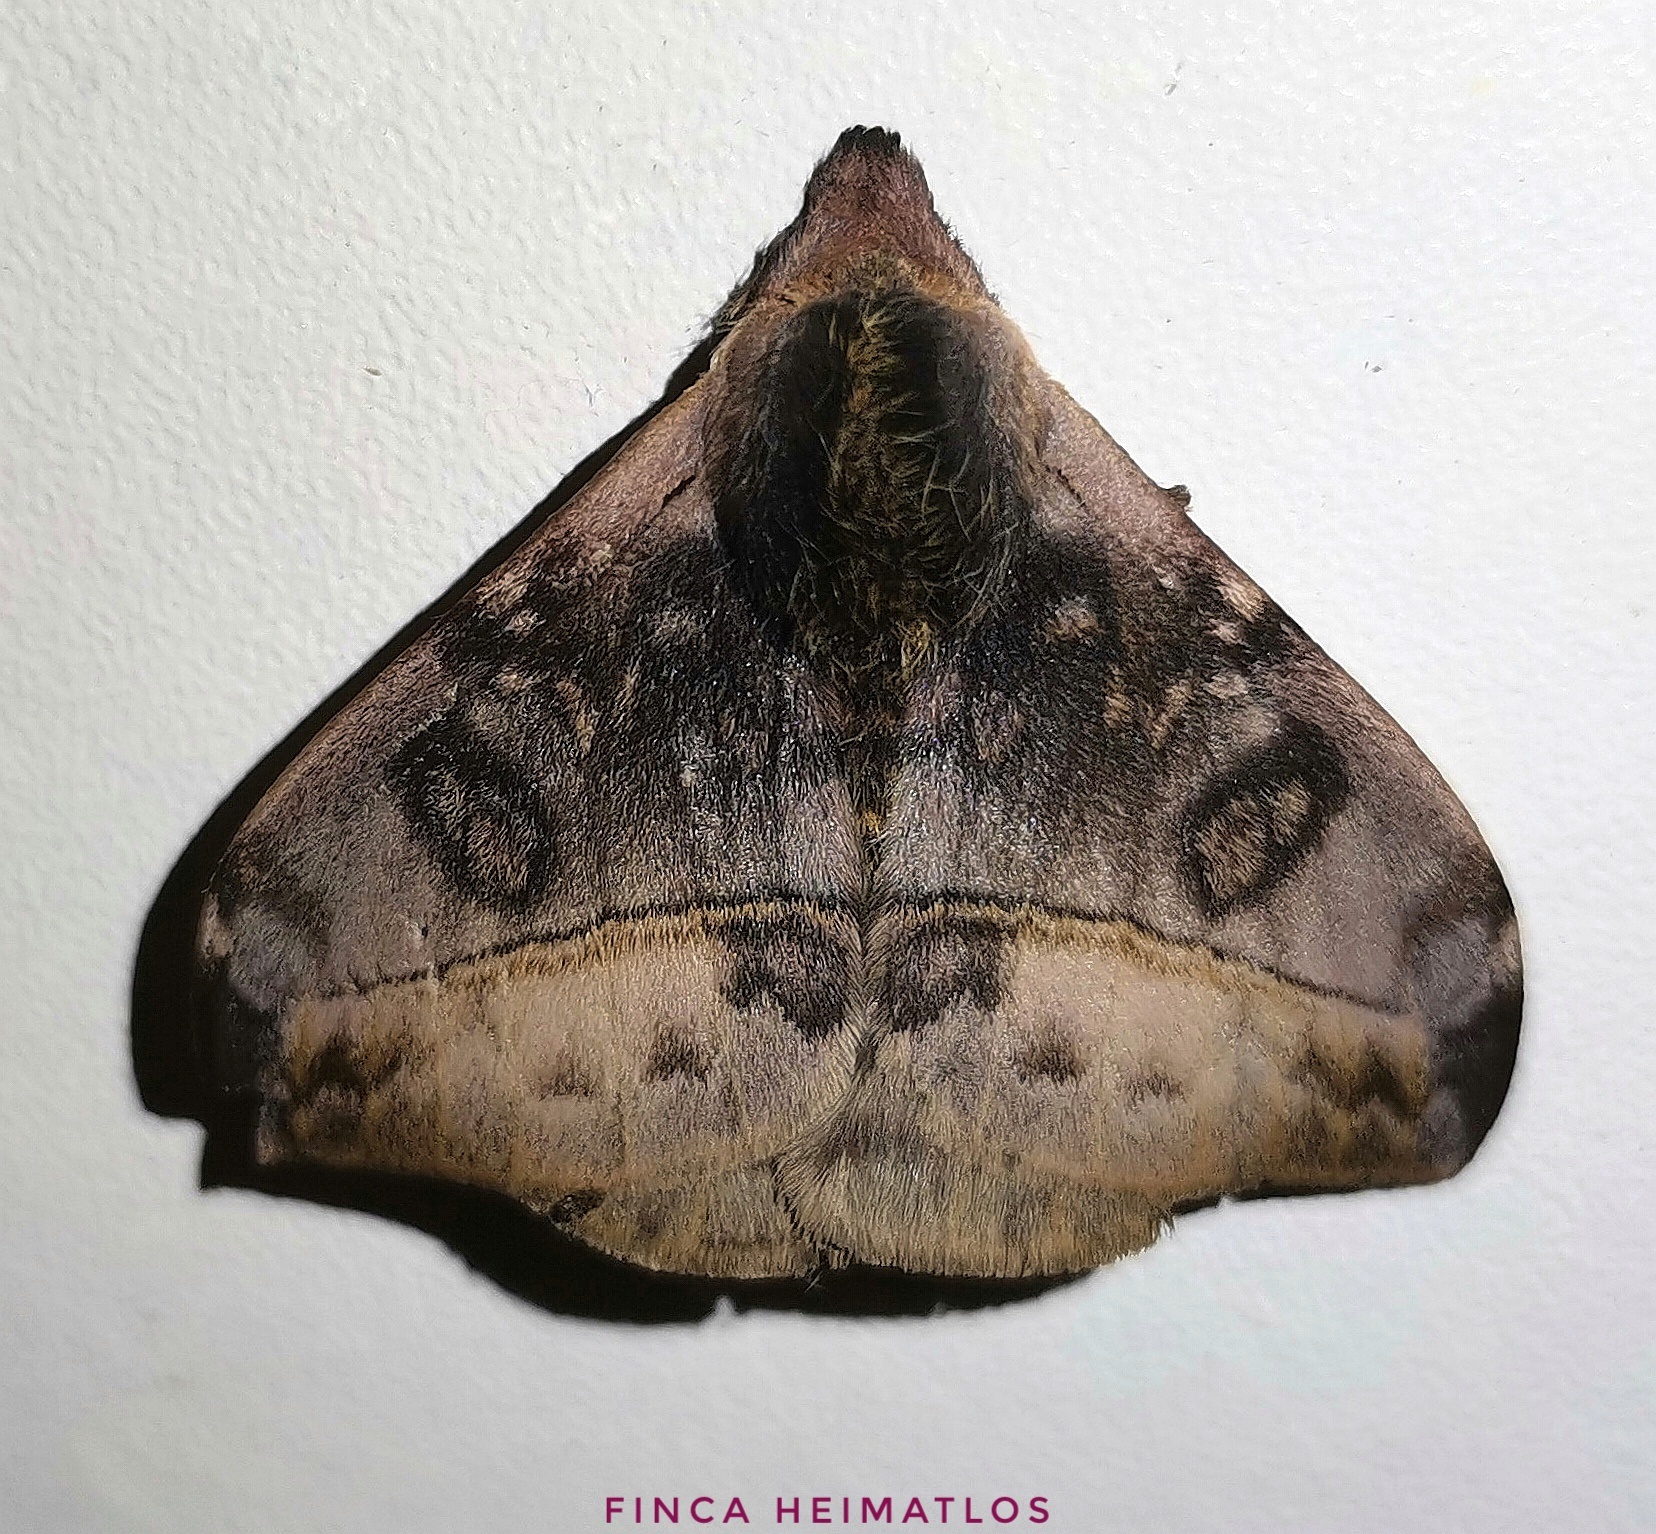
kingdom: Animalia
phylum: Arthropoda
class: Insecta
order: Lepidoptera
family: Saturniidae
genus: Hylesia
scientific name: Hylesia annulata
